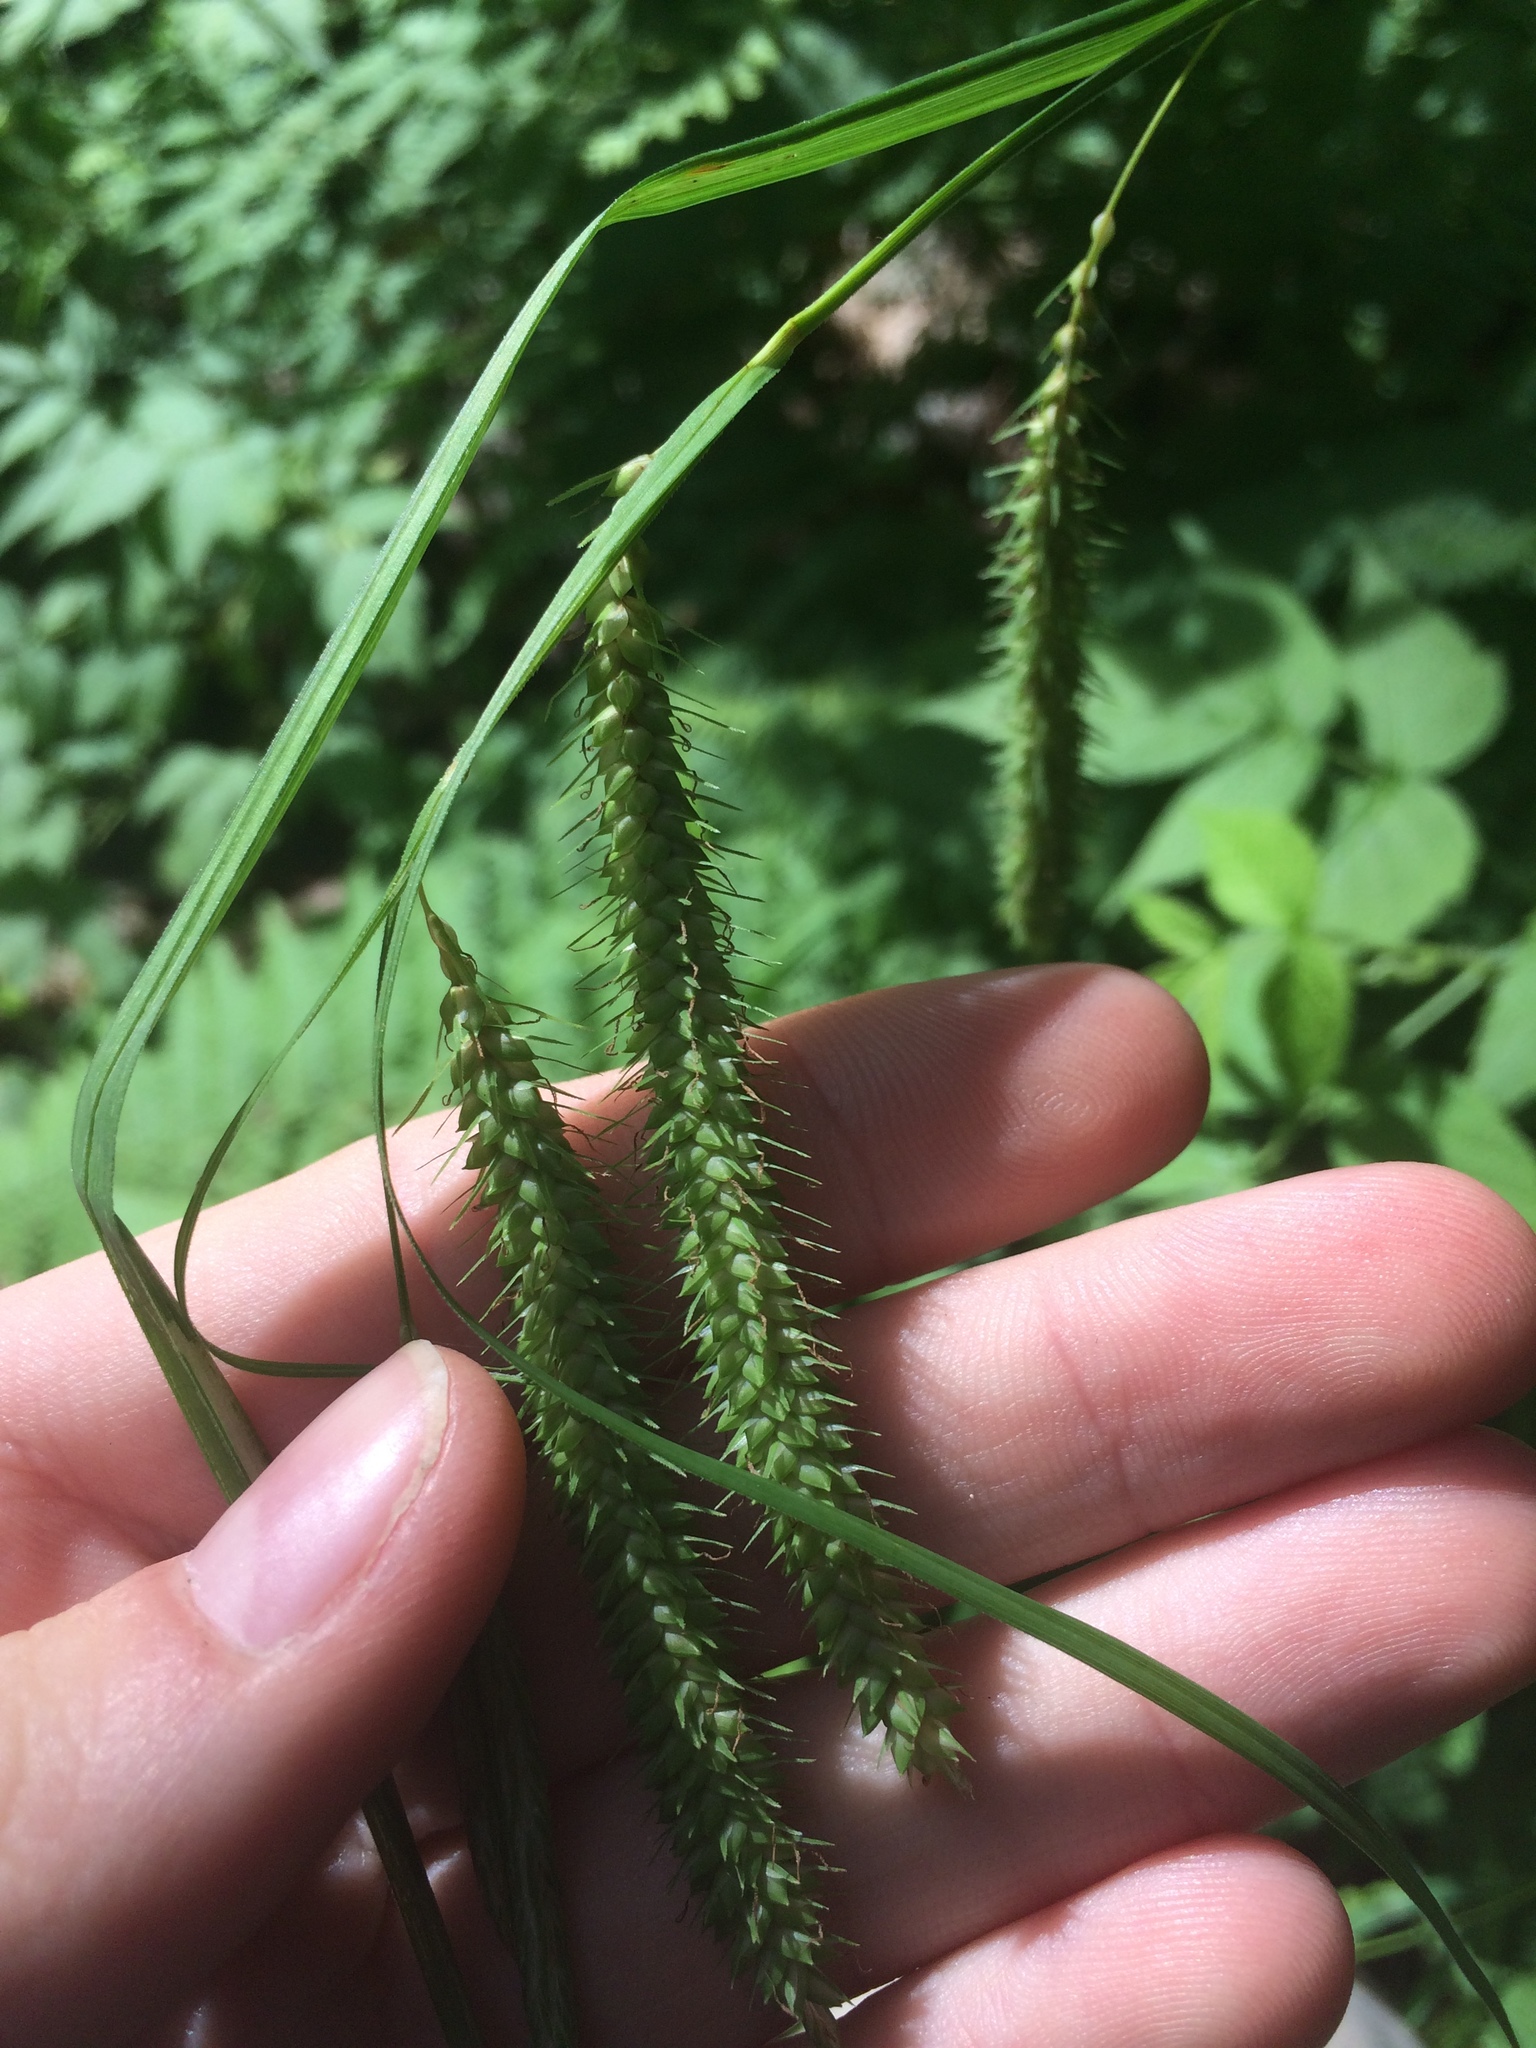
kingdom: Plantae
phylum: Tracheophyta
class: Liliopsida
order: Poales
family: Cyperaceae
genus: Carex
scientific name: Carex gynandra
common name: Nodding sedge
